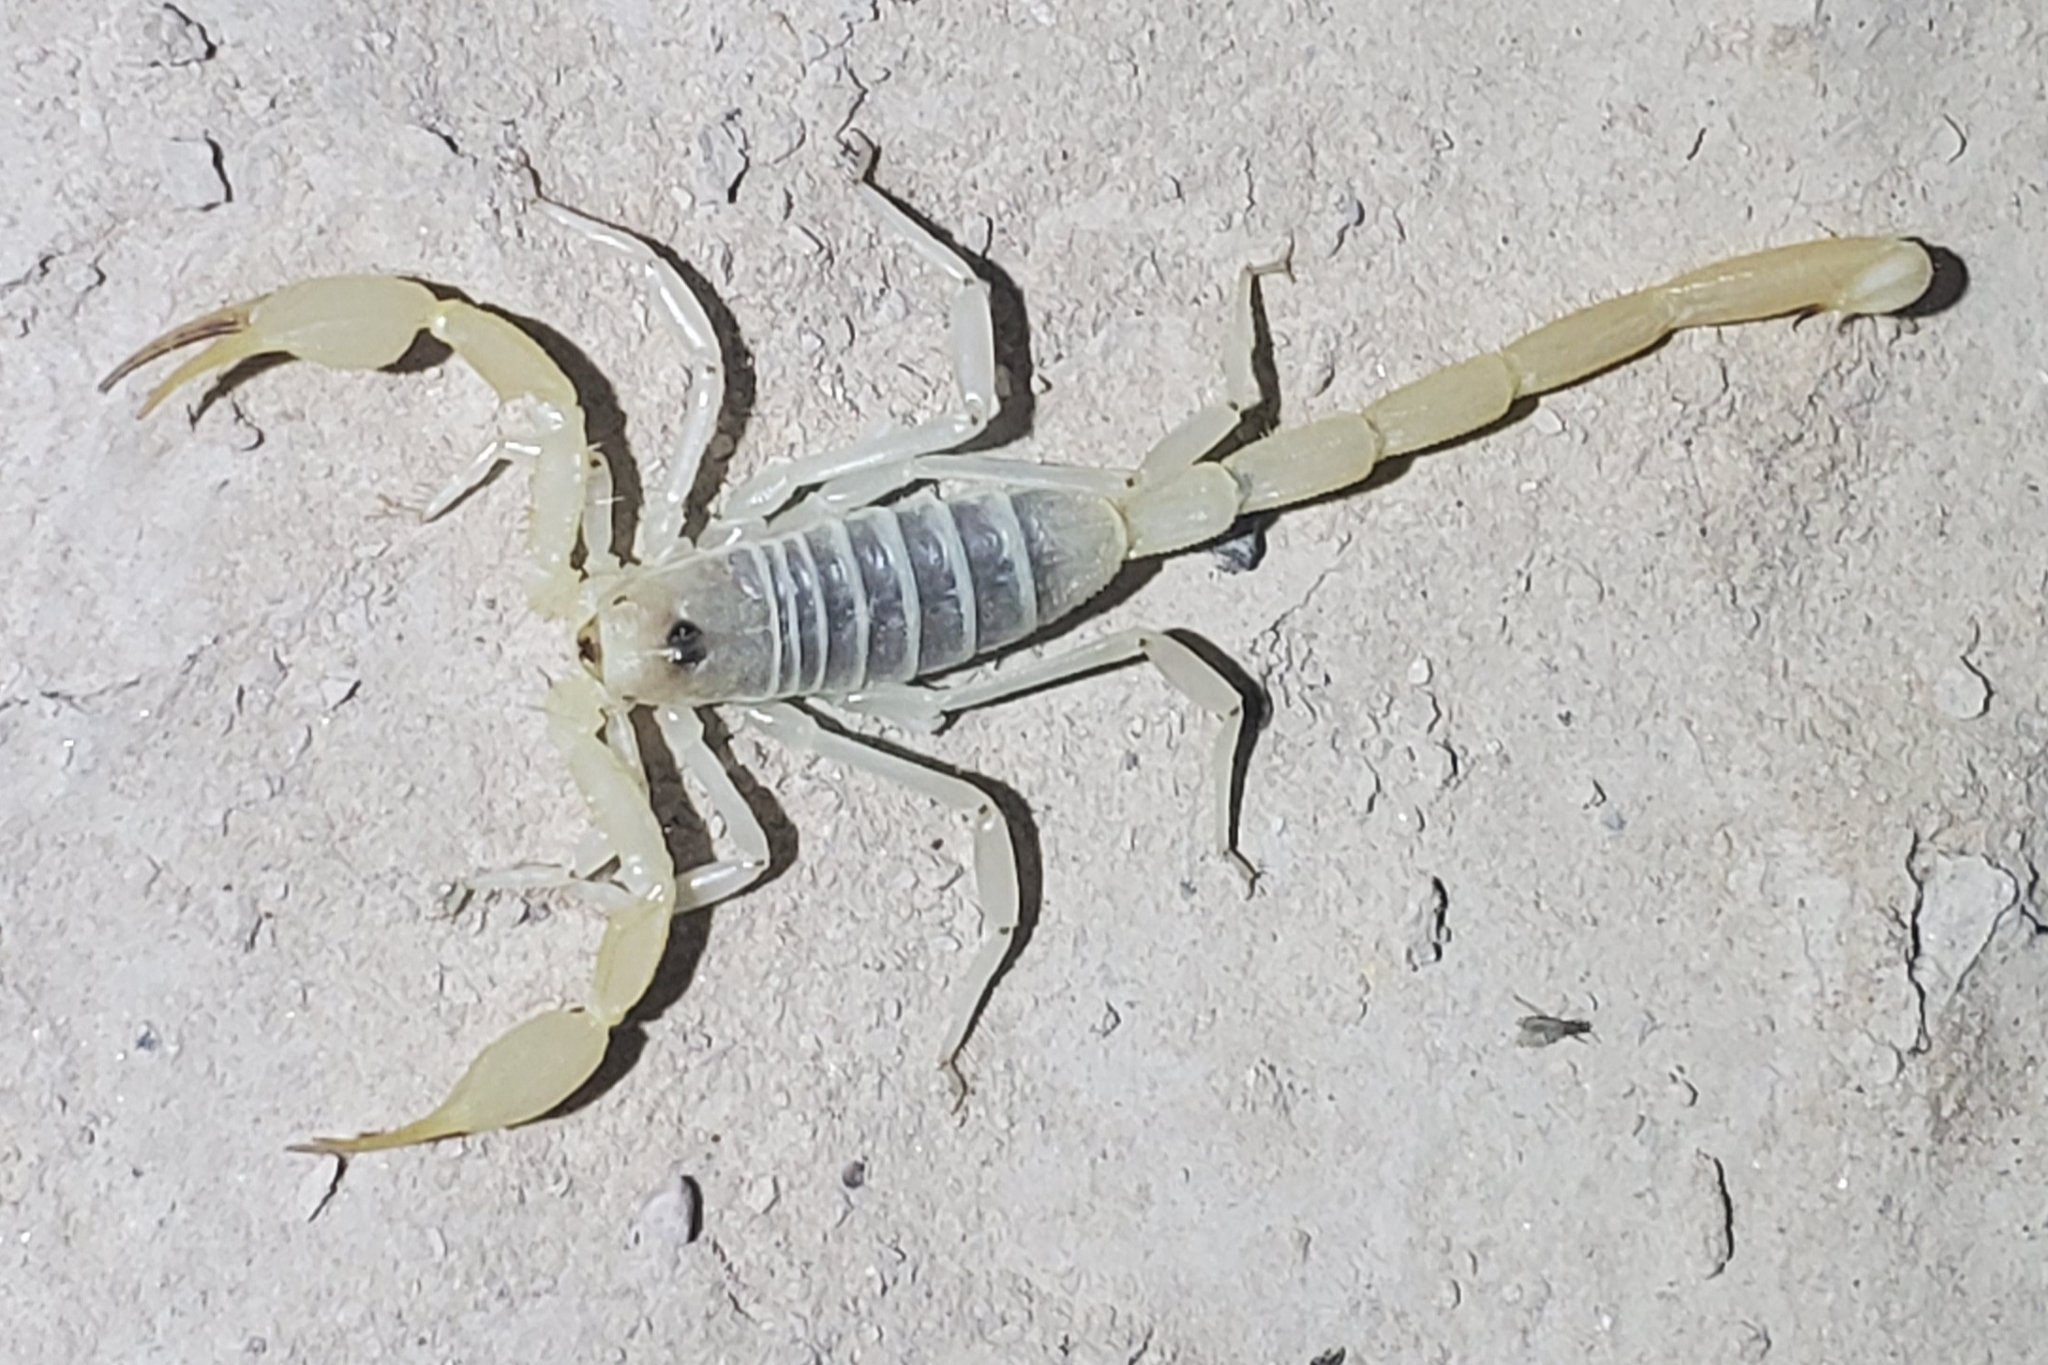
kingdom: Animalia
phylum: Arthropoda
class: Arachnida
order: Scorpiones
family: Vaejovidae
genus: Smeringurus
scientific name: Smeringurus mesaensis
